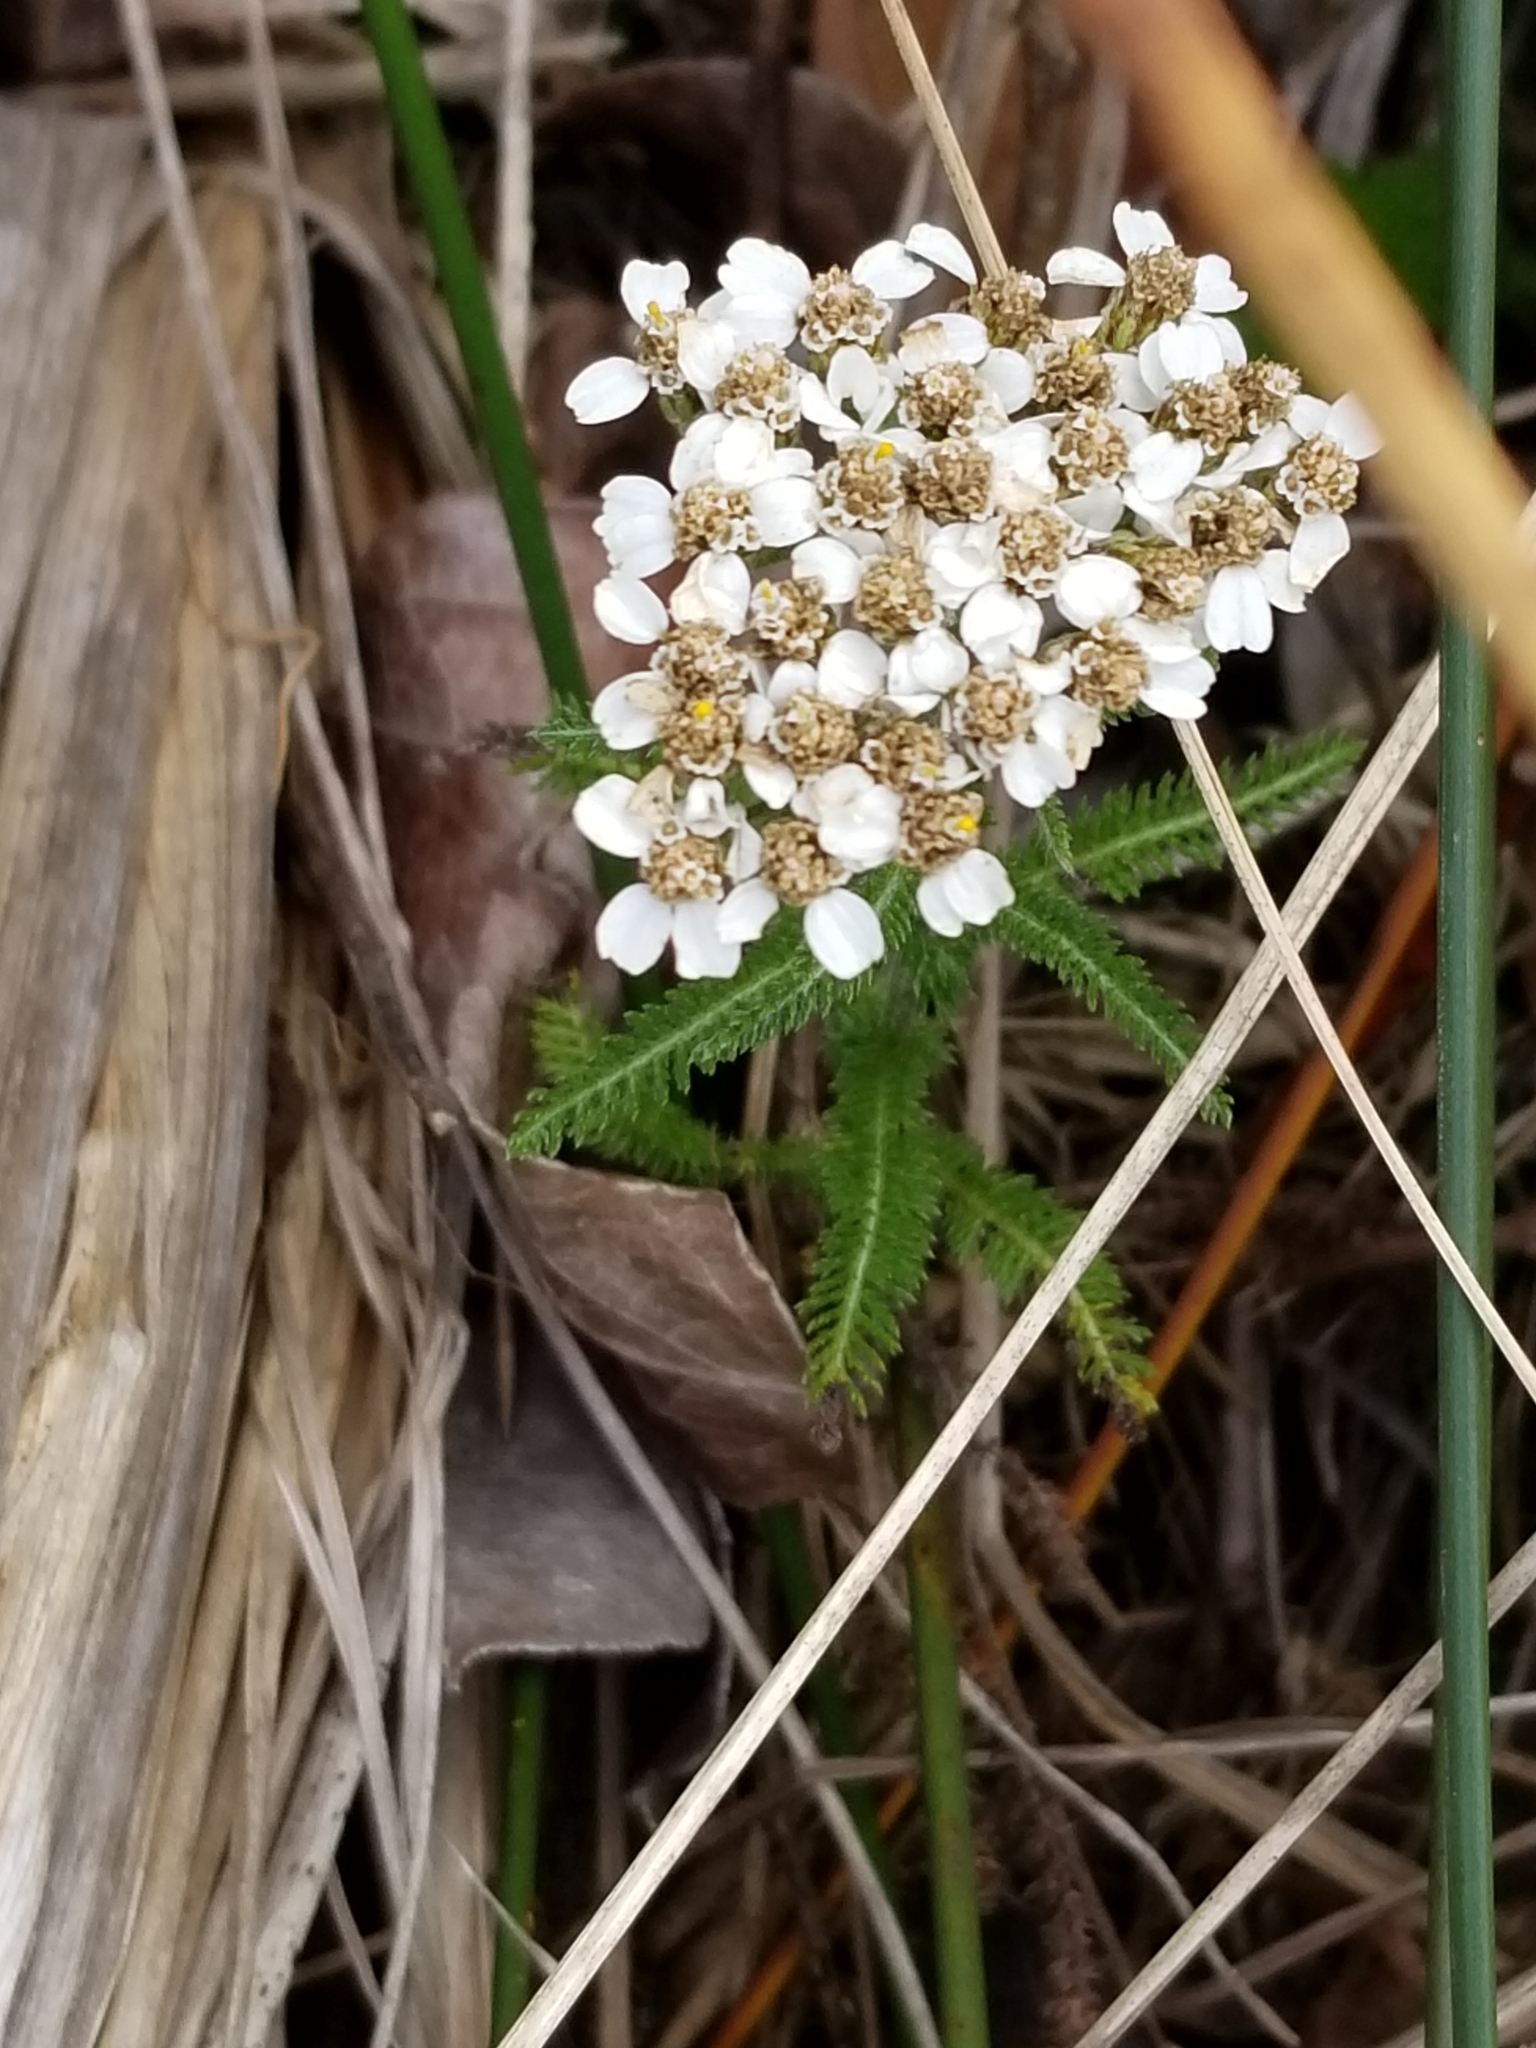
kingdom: Plantae
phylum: Tracheophyta
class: Magnoliopsida
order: Asterales
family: Asteraceae
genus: Achillea
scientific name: Achillea millefolium
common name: Yarrow
